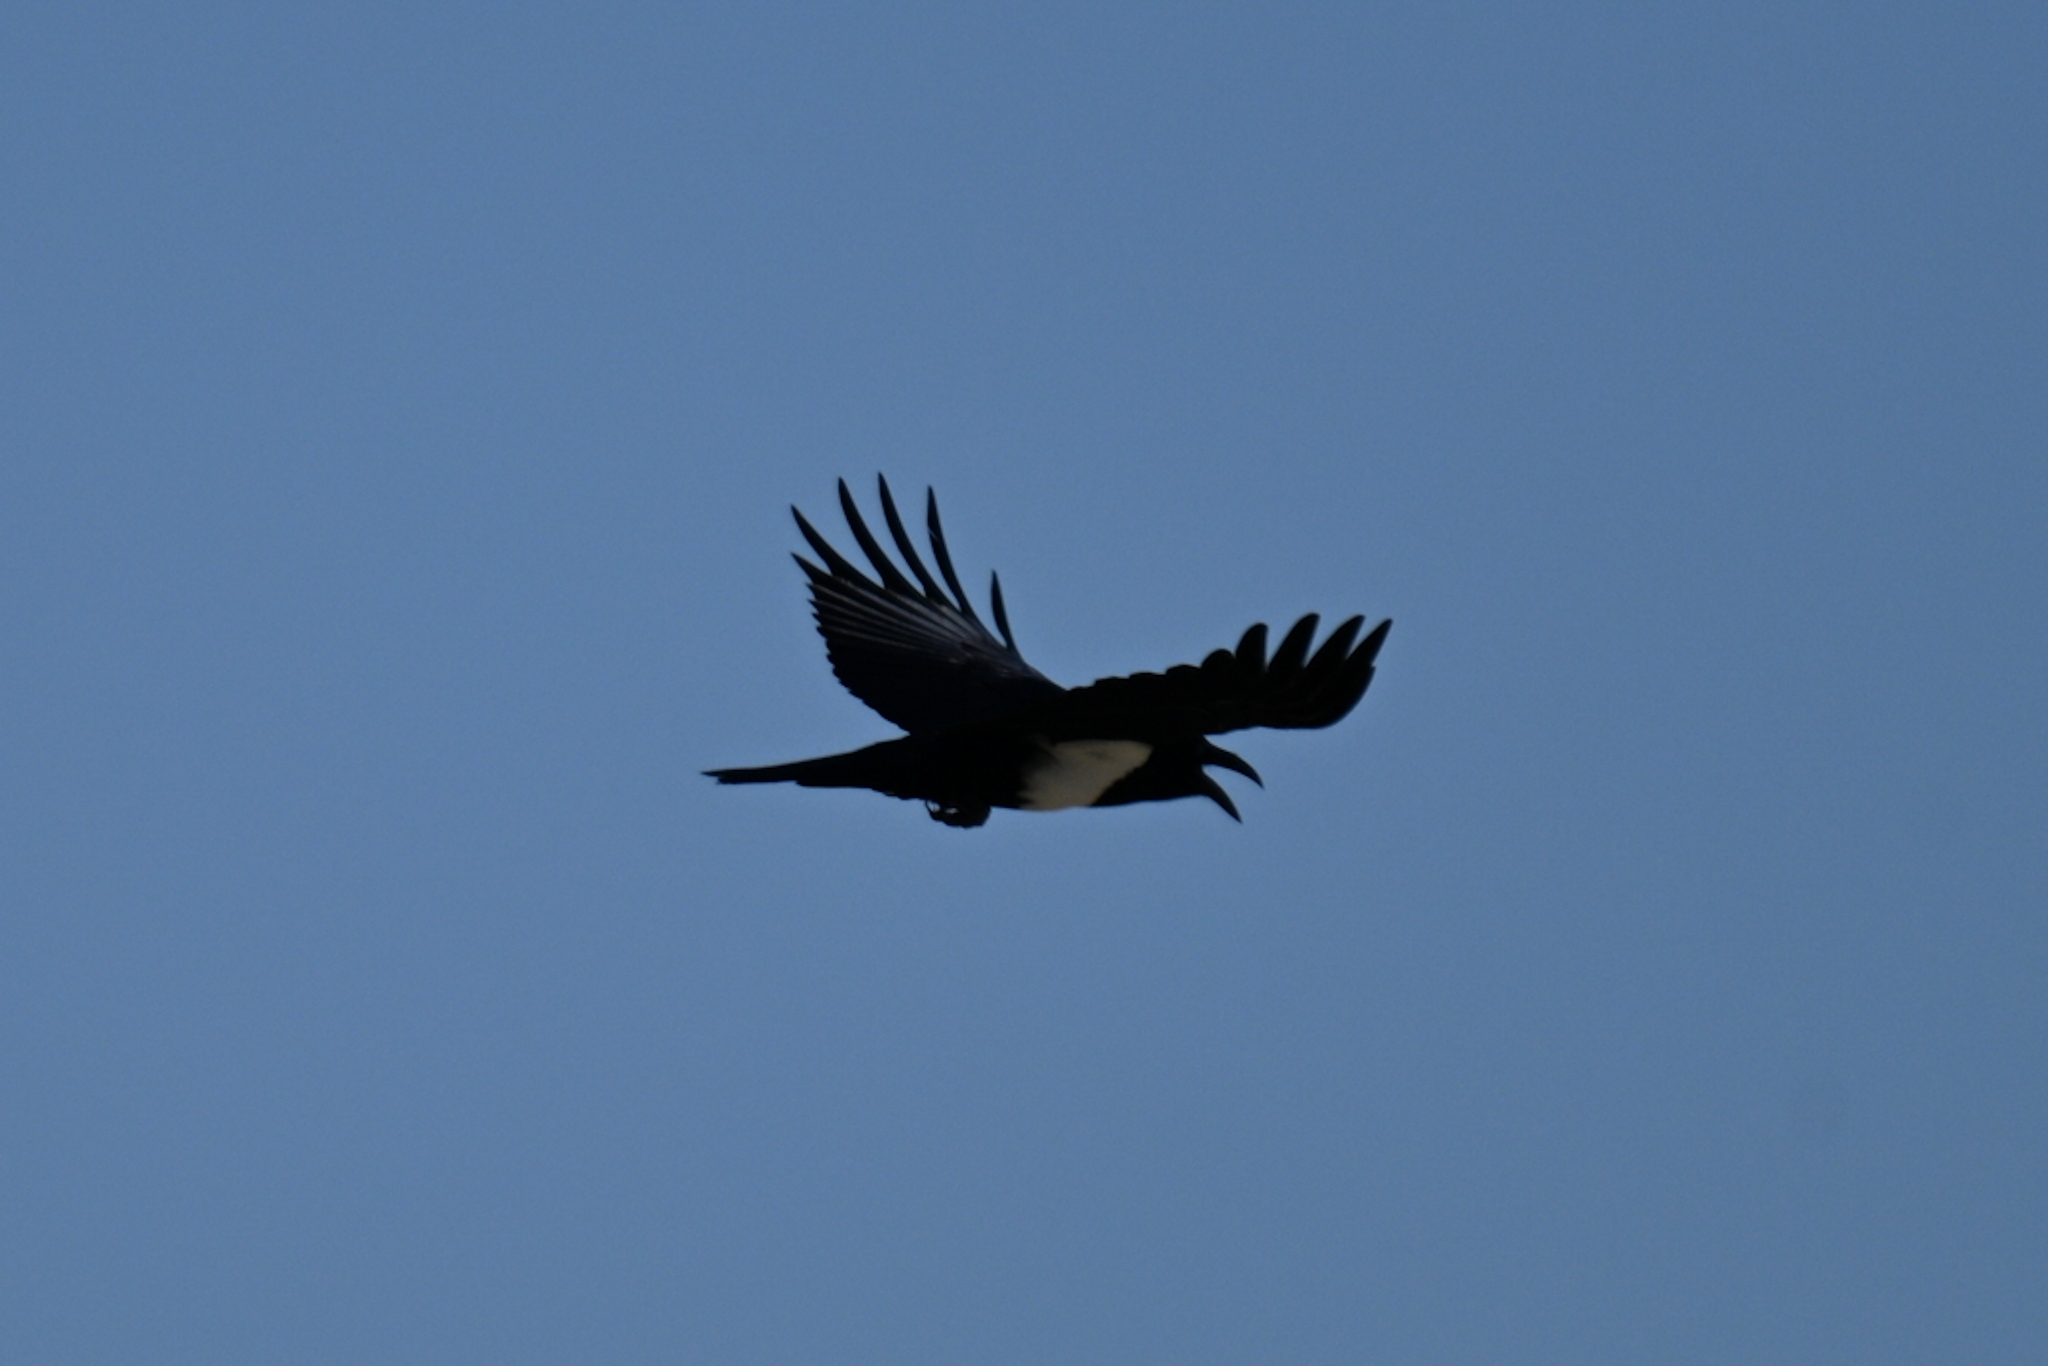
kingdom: Animalia
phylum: Chordata
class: Aves
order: Passeriformes
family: Corvidae
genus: Corvus
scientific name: Corvus albus
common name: Pied crow
